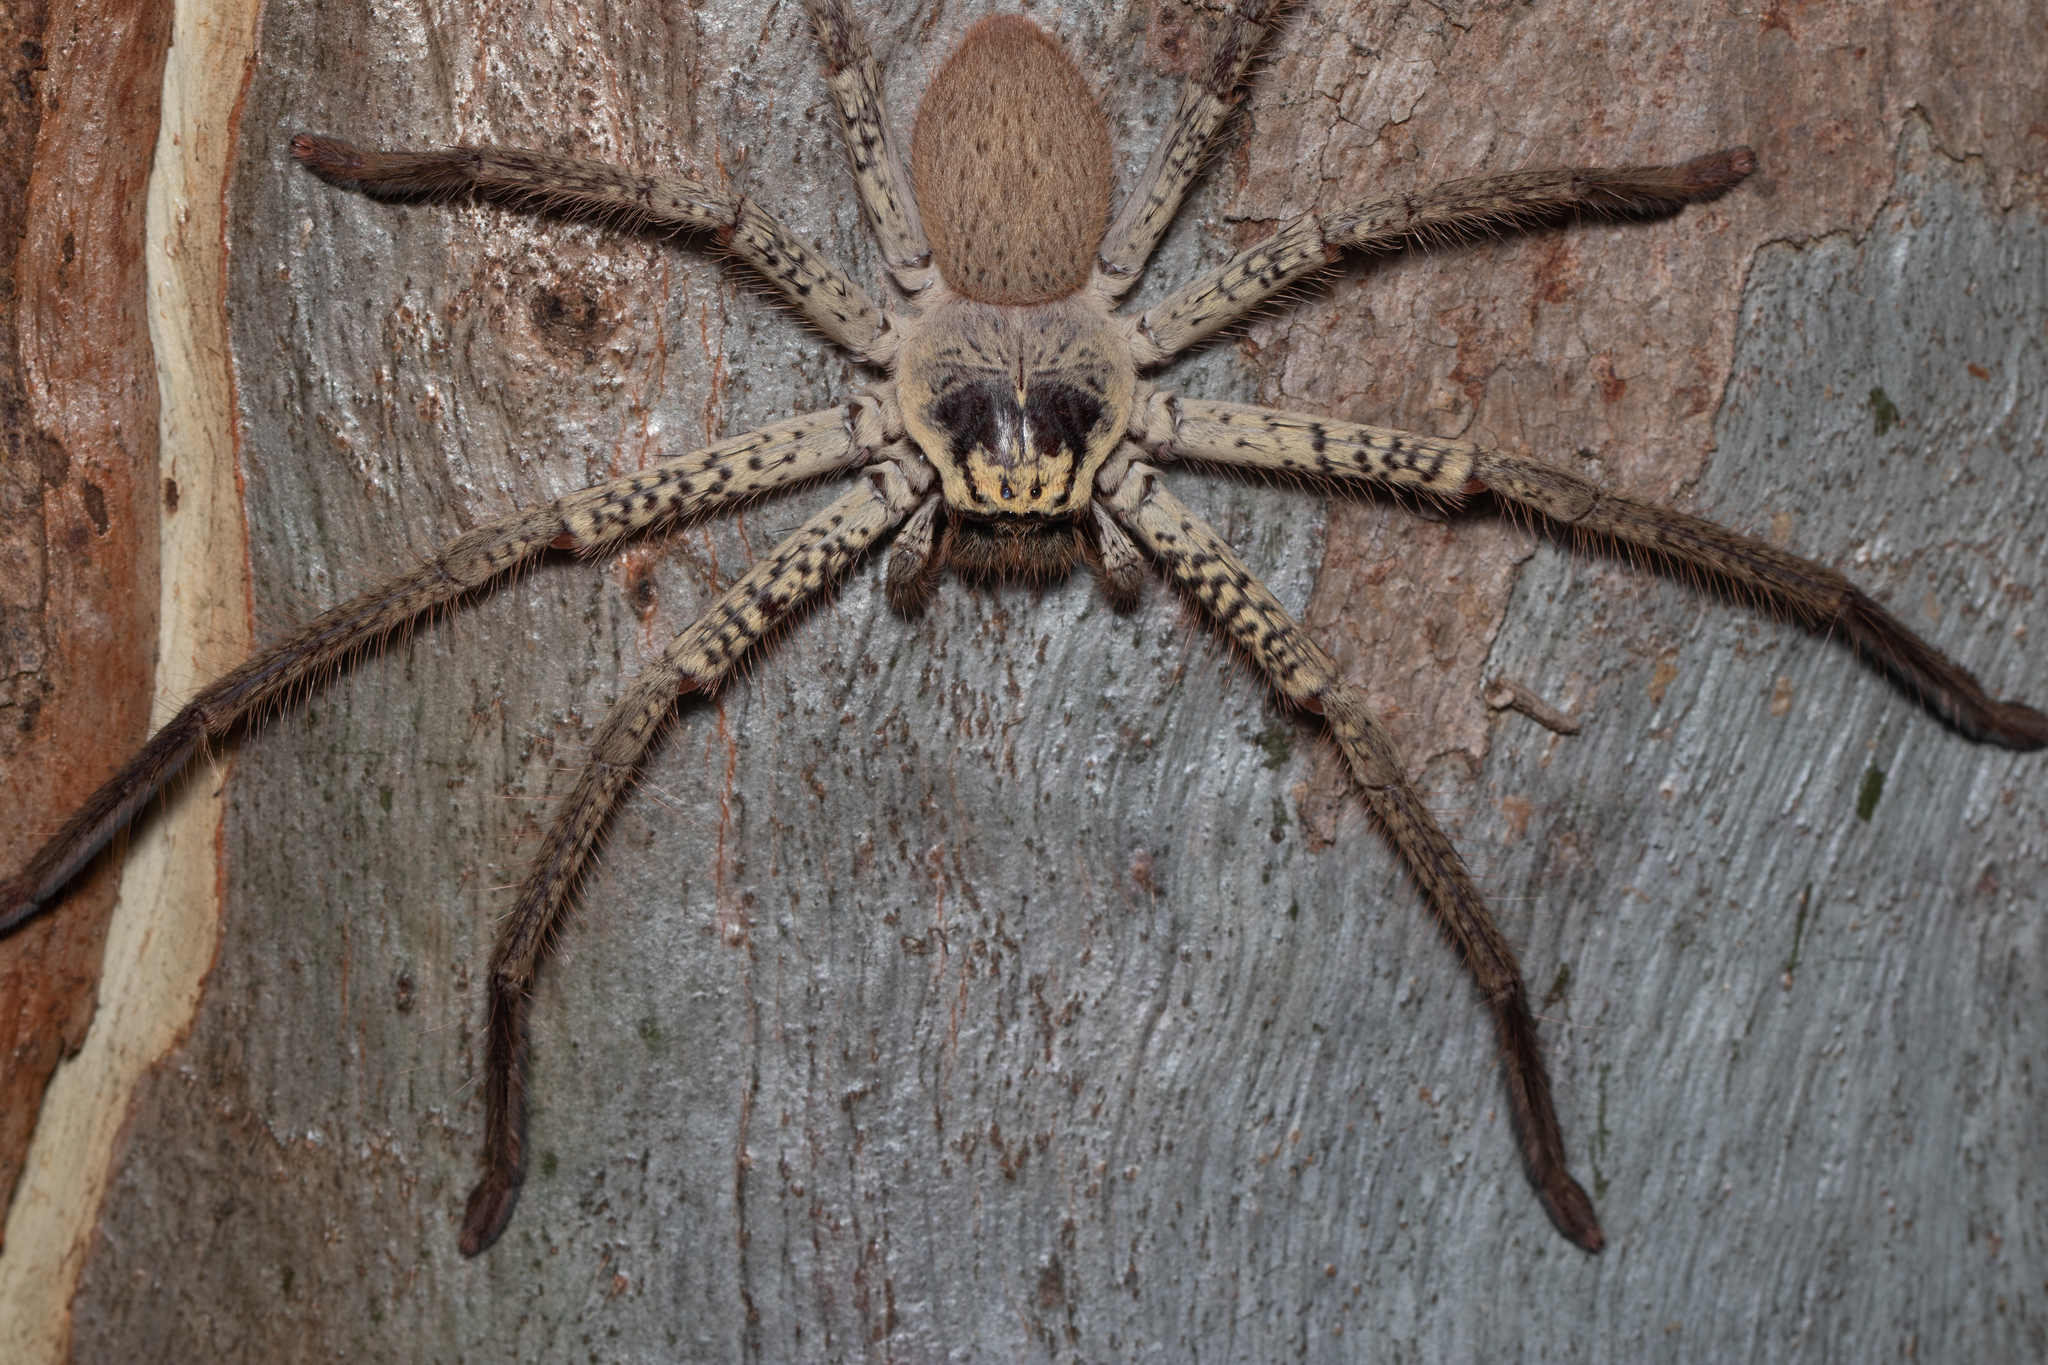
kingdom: Animalia
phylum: Arthropoda
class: Arachnida
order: Araneae
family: Sparassidae
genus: Beregama
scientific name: Beregama aurea
